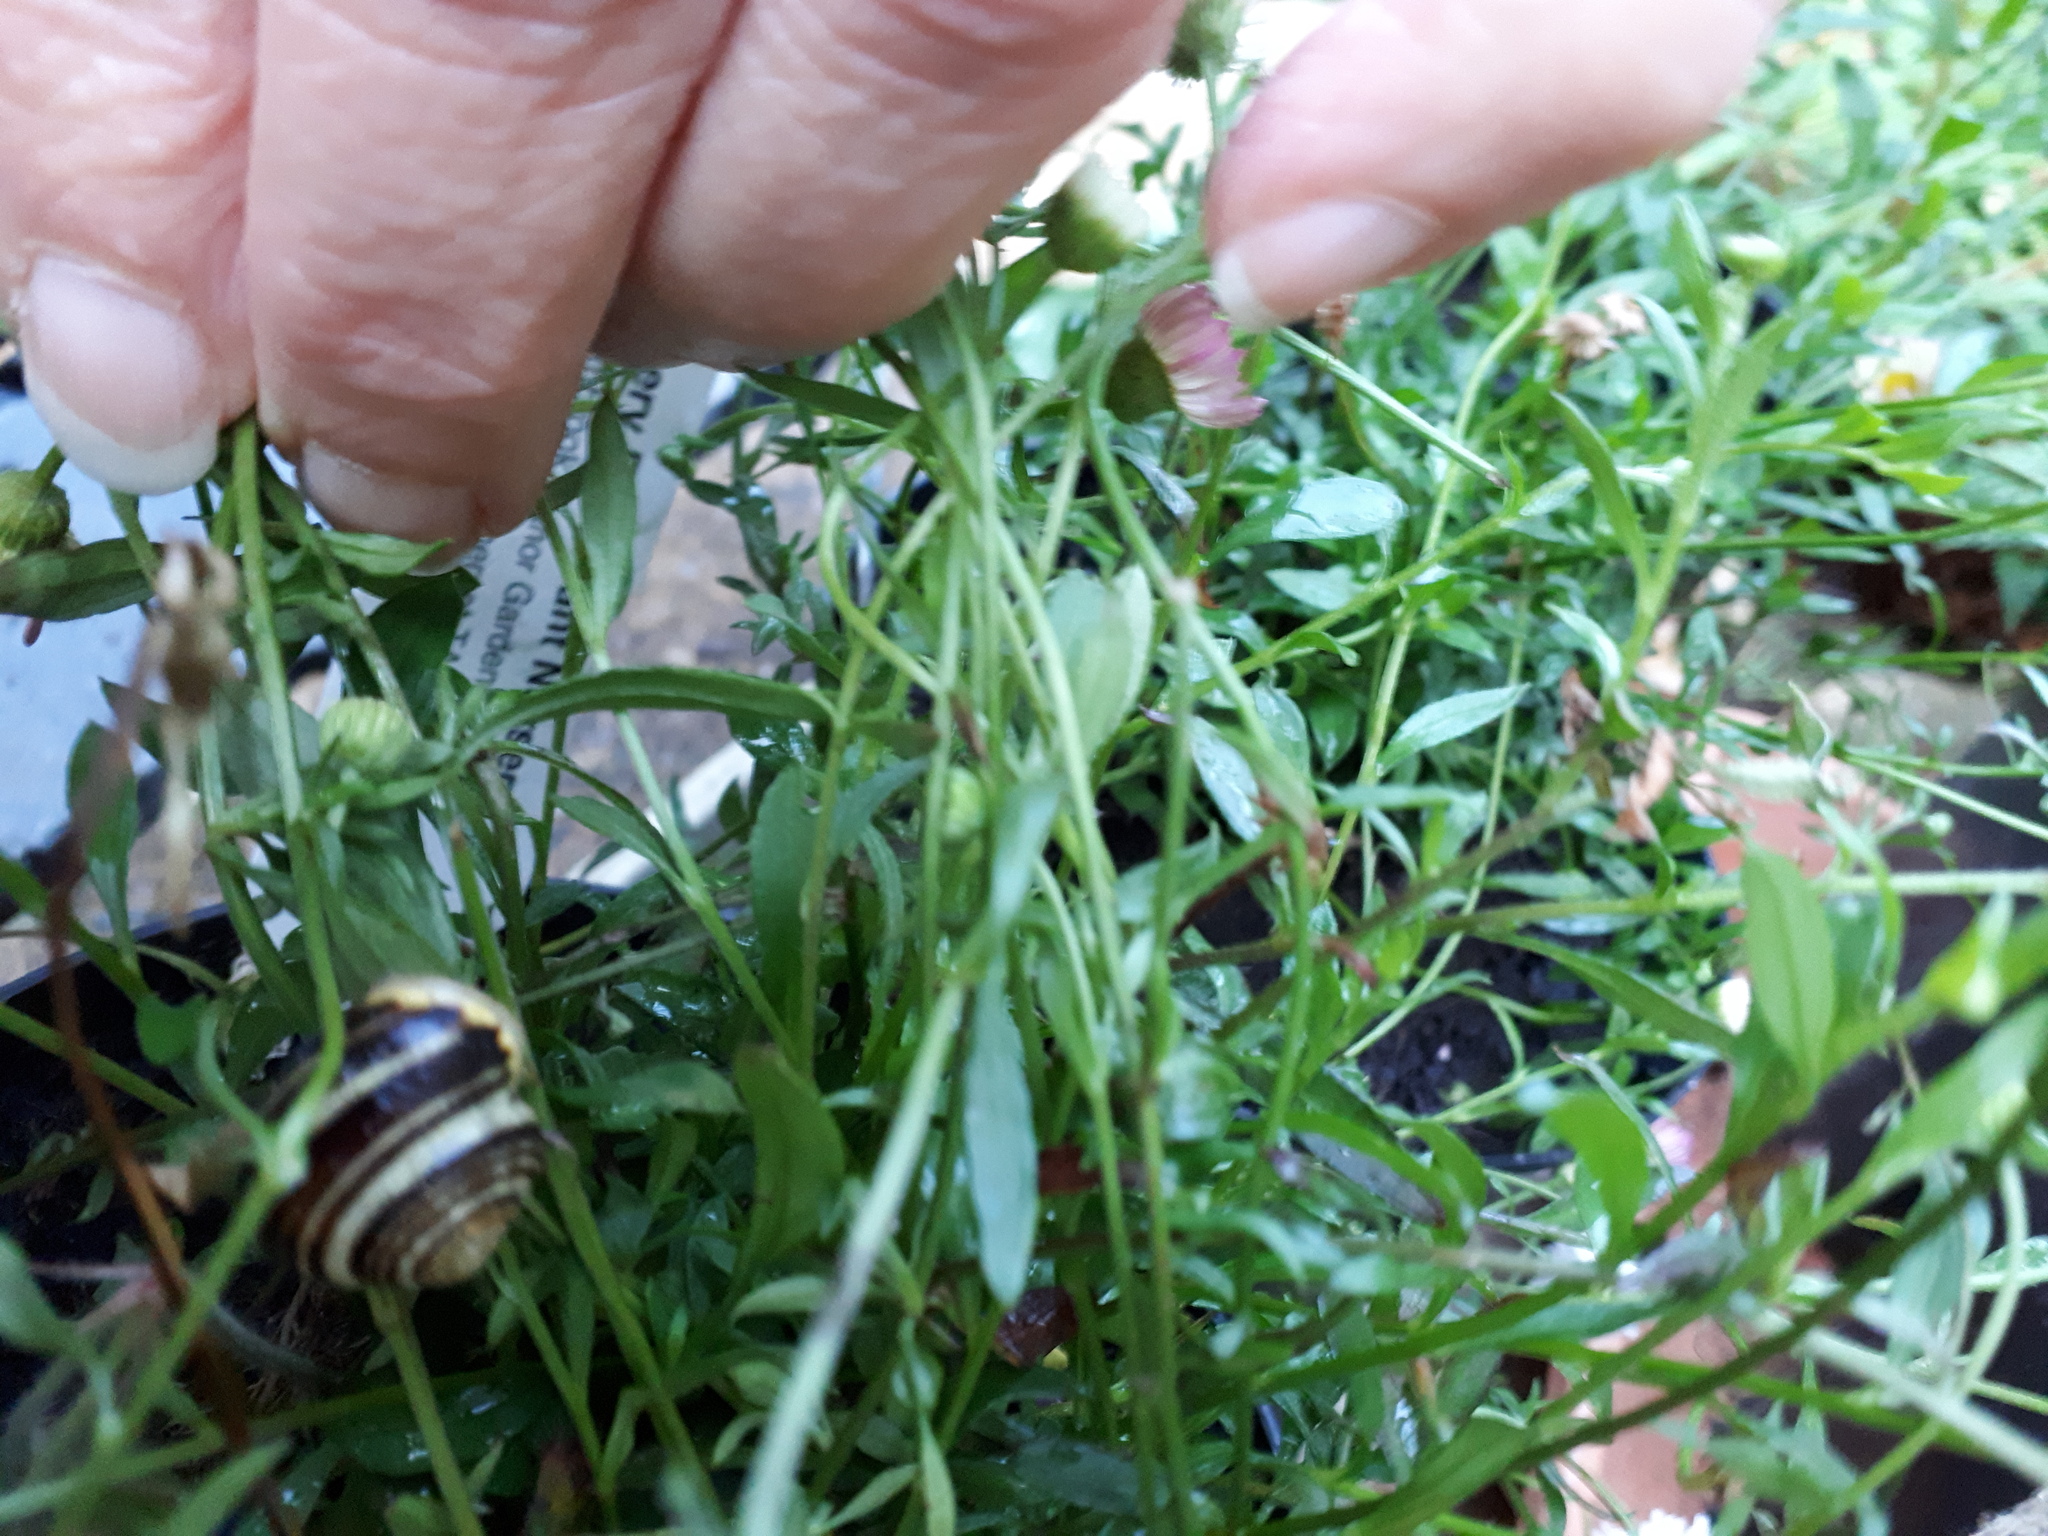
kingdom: Animalia
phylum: Mollusca
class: Gastropoda
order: Stylommatophora
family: Helicidae
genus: Cepaea
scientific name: Cepaea hortensis
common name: White-lip gardensnail
